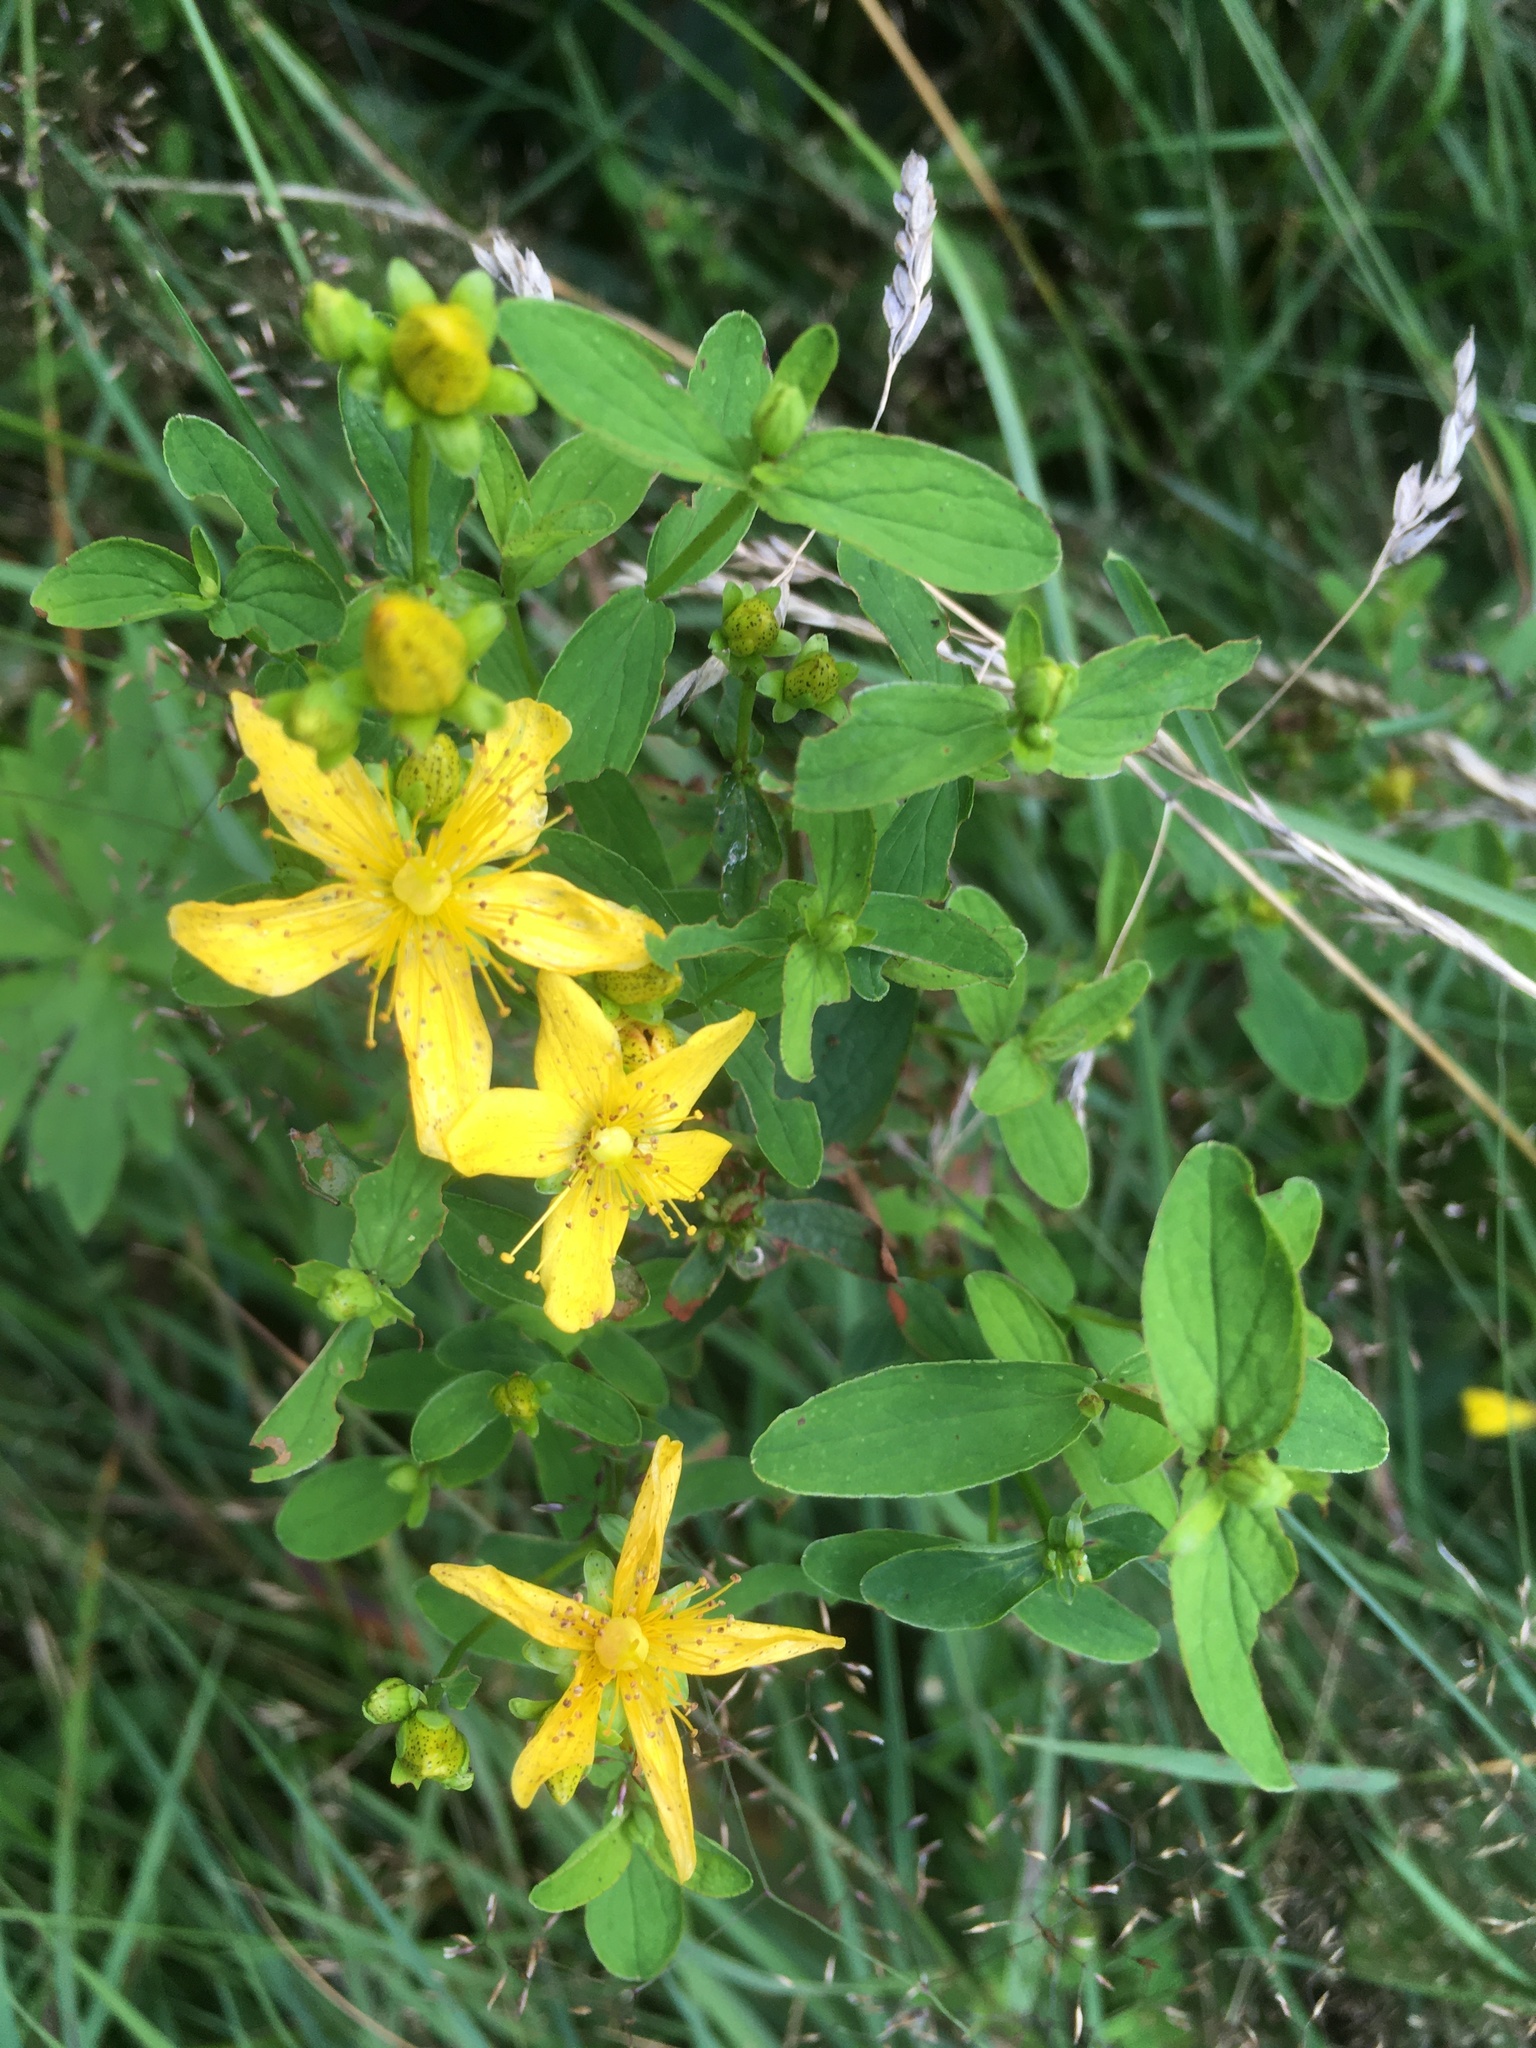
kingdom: Plantae
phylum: Tracheophyta
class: Magnoliopsida
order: Malpighiales
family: Hypericaceae
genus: Hypericum
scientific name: Hypericum maculatum
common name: Imperforate st. john's-wort
